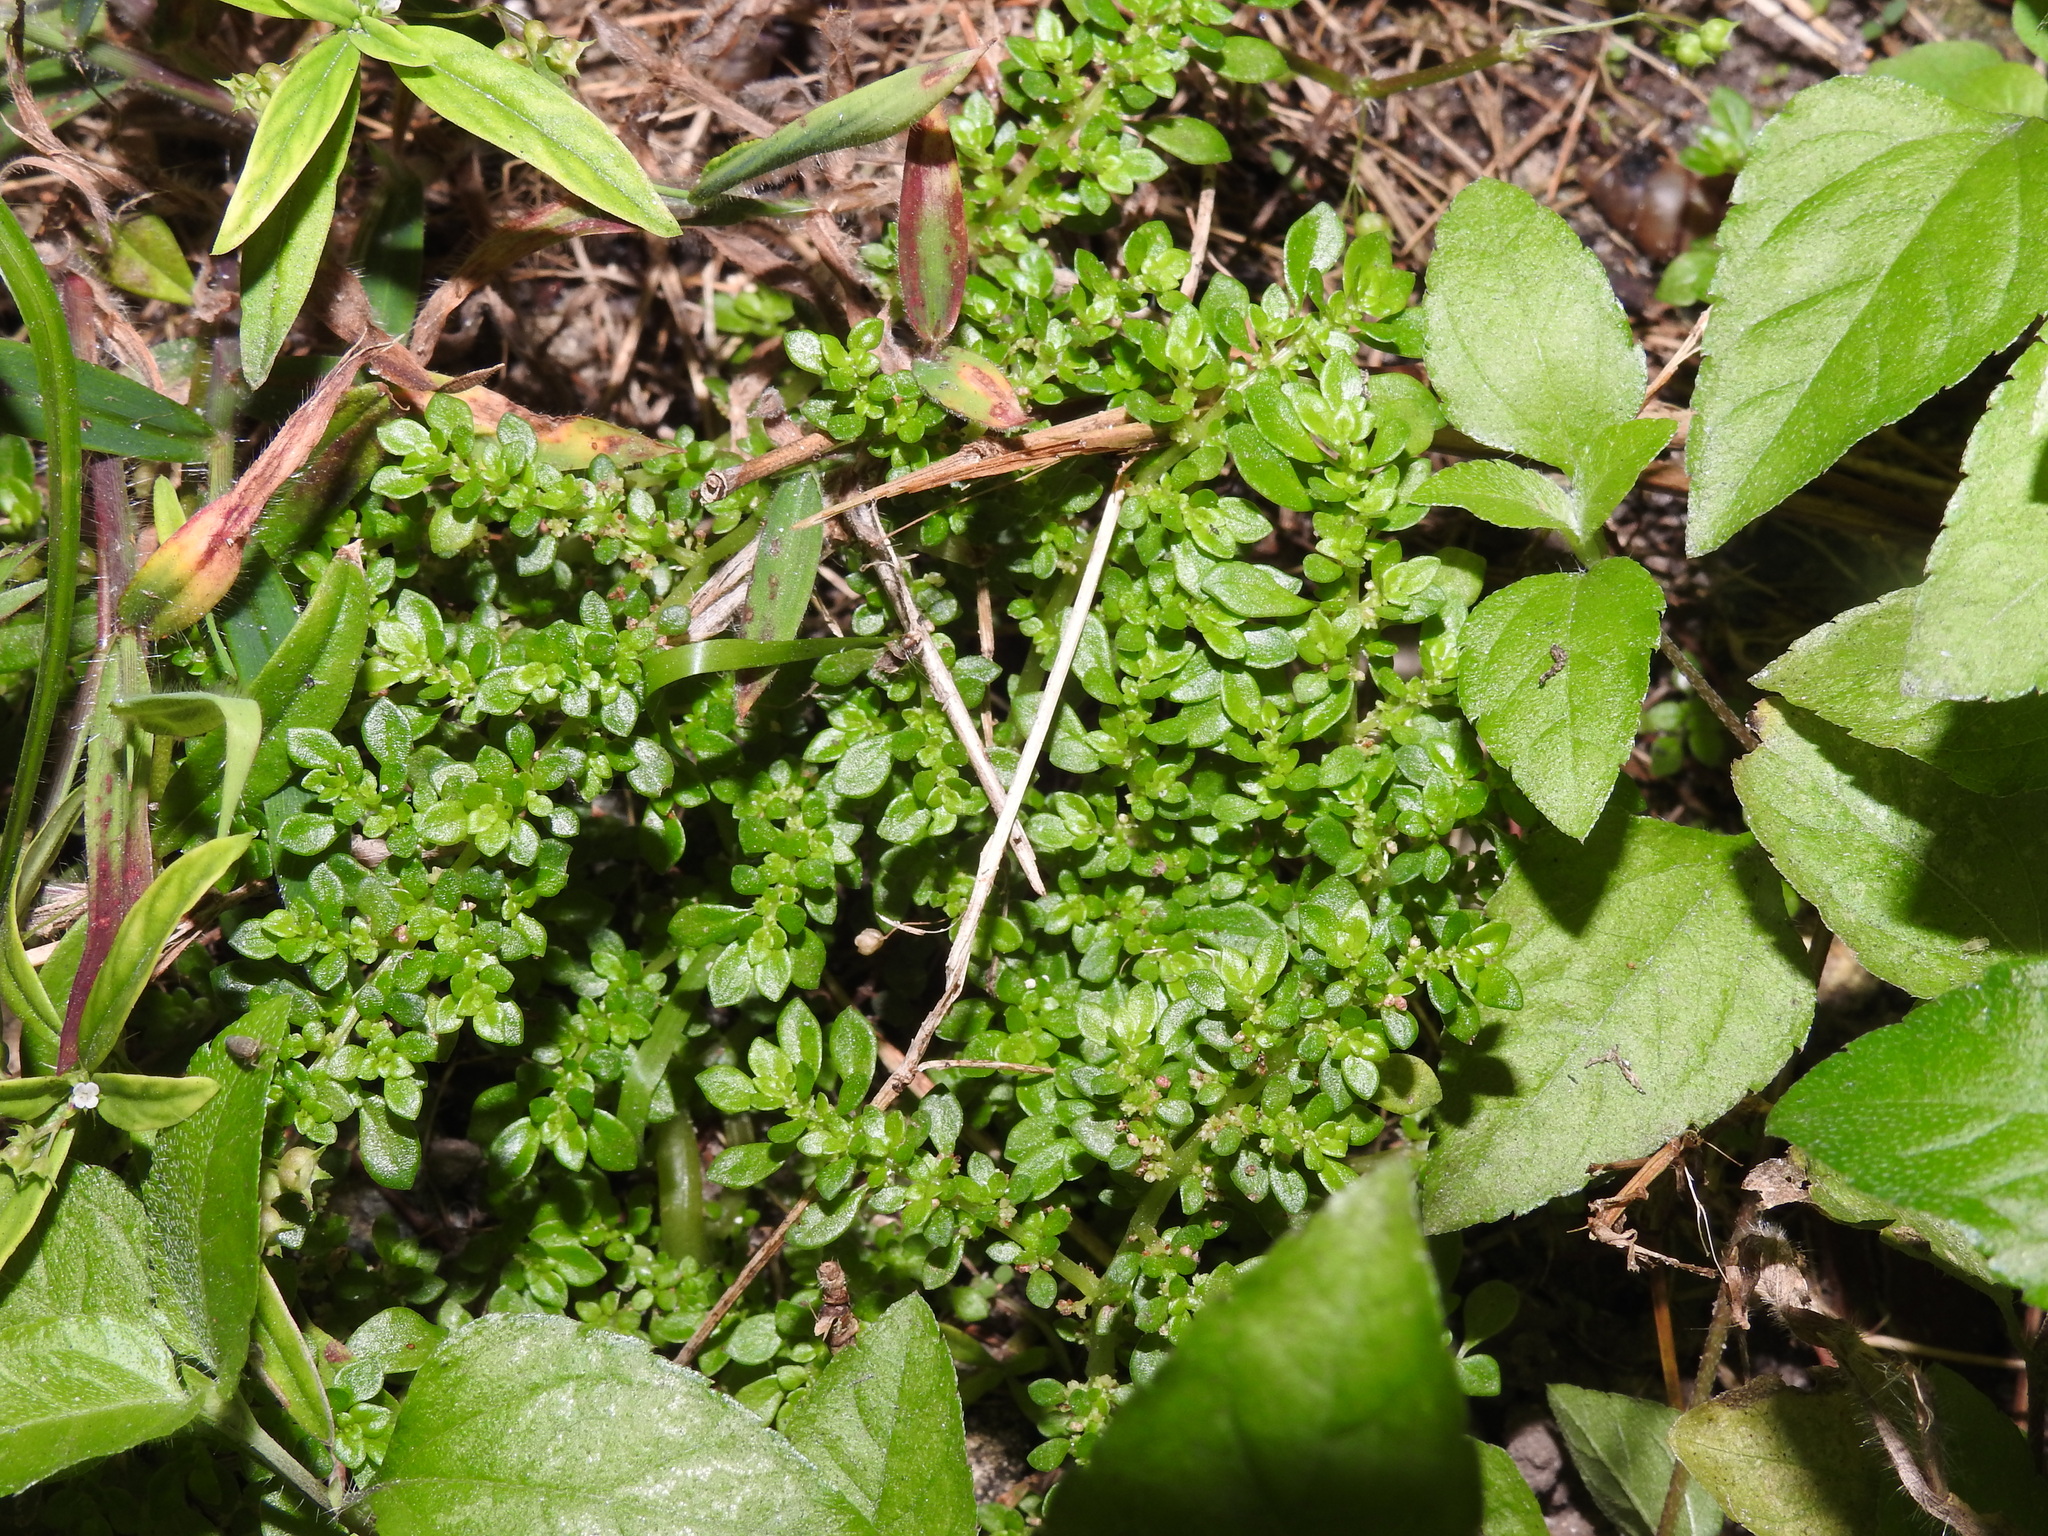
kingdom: Plantae
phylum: Tracheophyta
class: Magnoliopsida
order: Rosales
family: Urticaceae
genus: Pilea
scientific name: Pilea microphylla
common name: Artillery-plant
